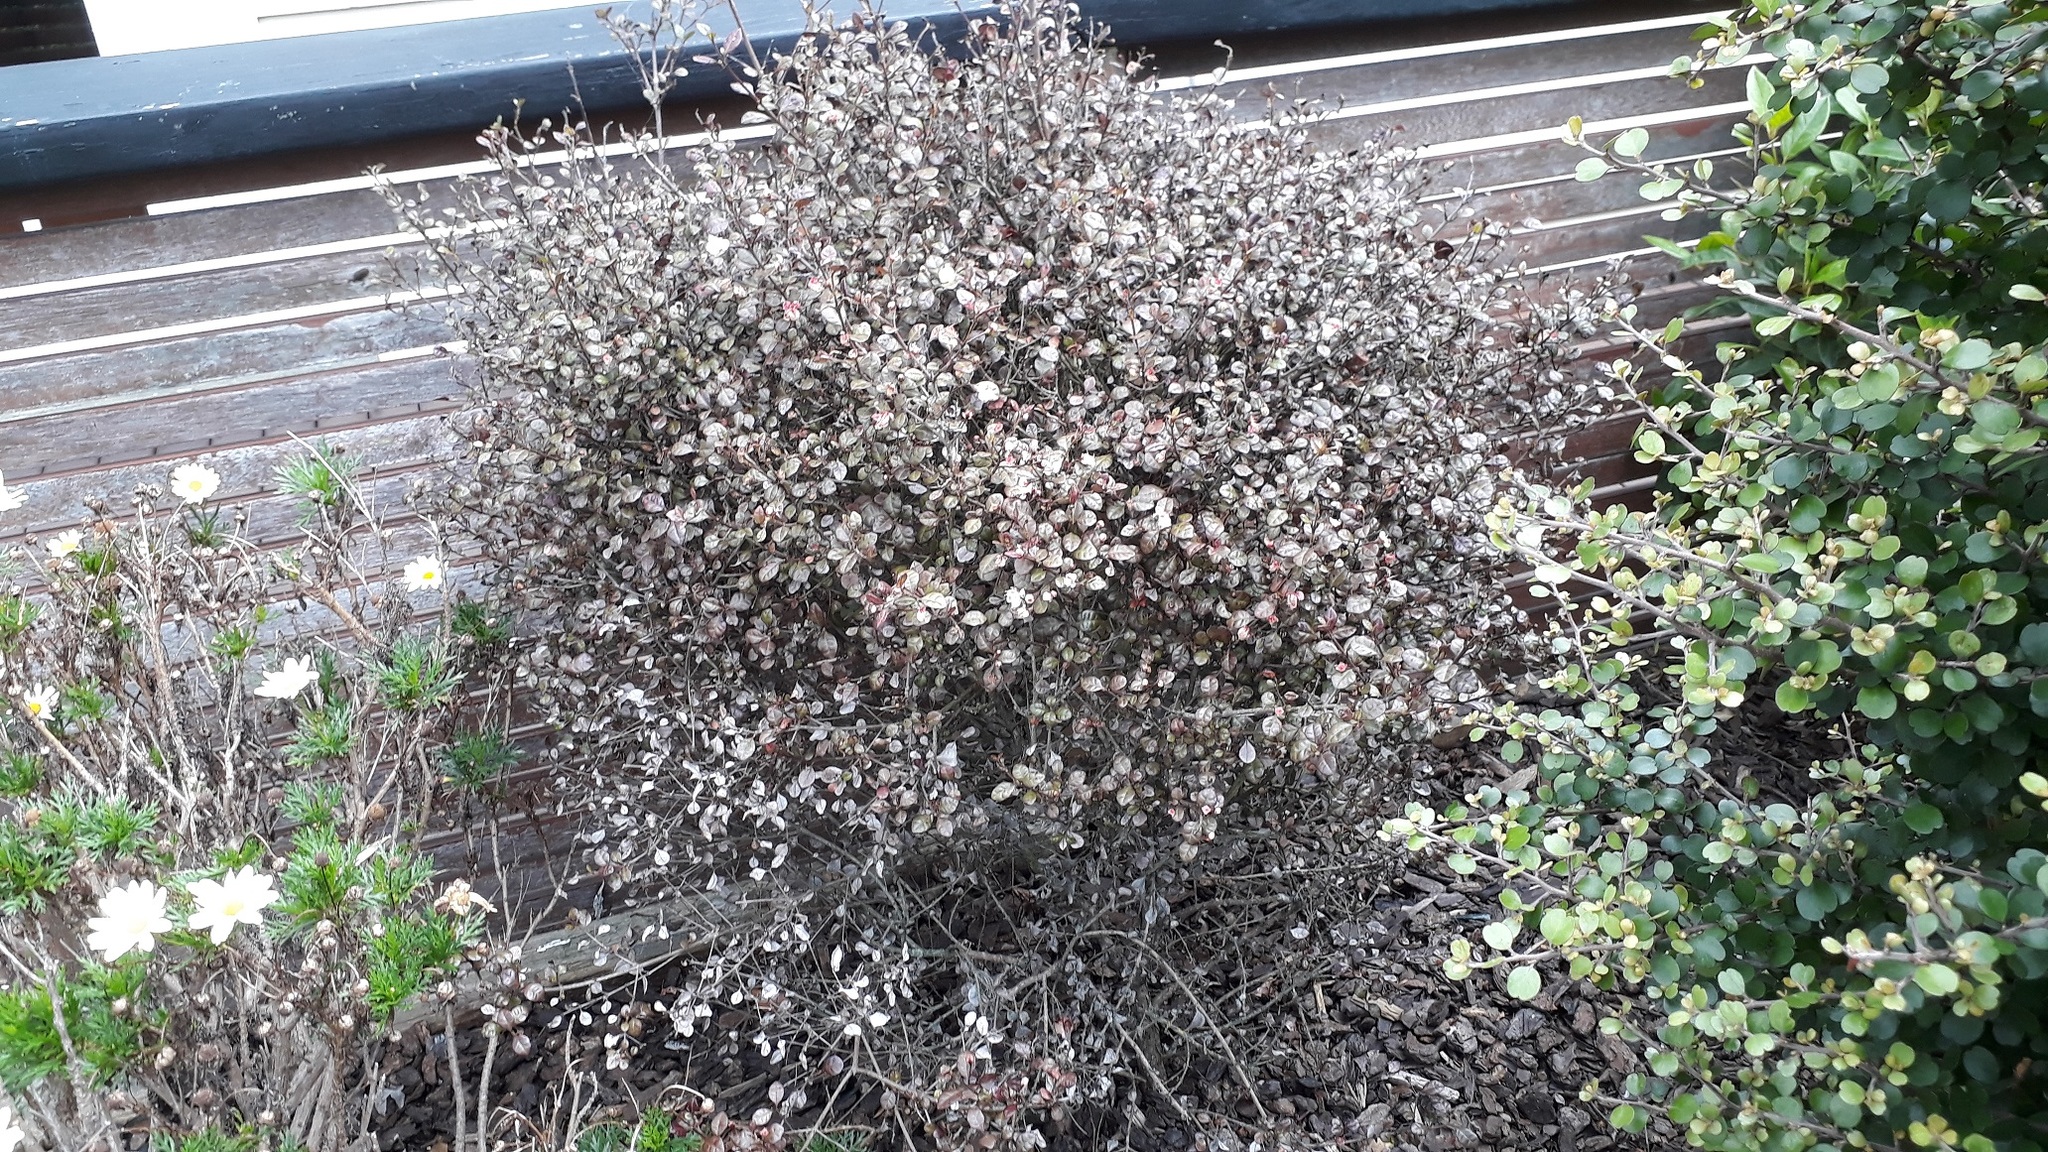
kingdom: Fungi
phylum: Basidiomycota
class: Pucciniomycetes
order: Pucciniales
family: Sphaerophragmiaceae
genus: Austropuccinia
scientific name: Austropuccinia psidii
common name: Myrtle rust
